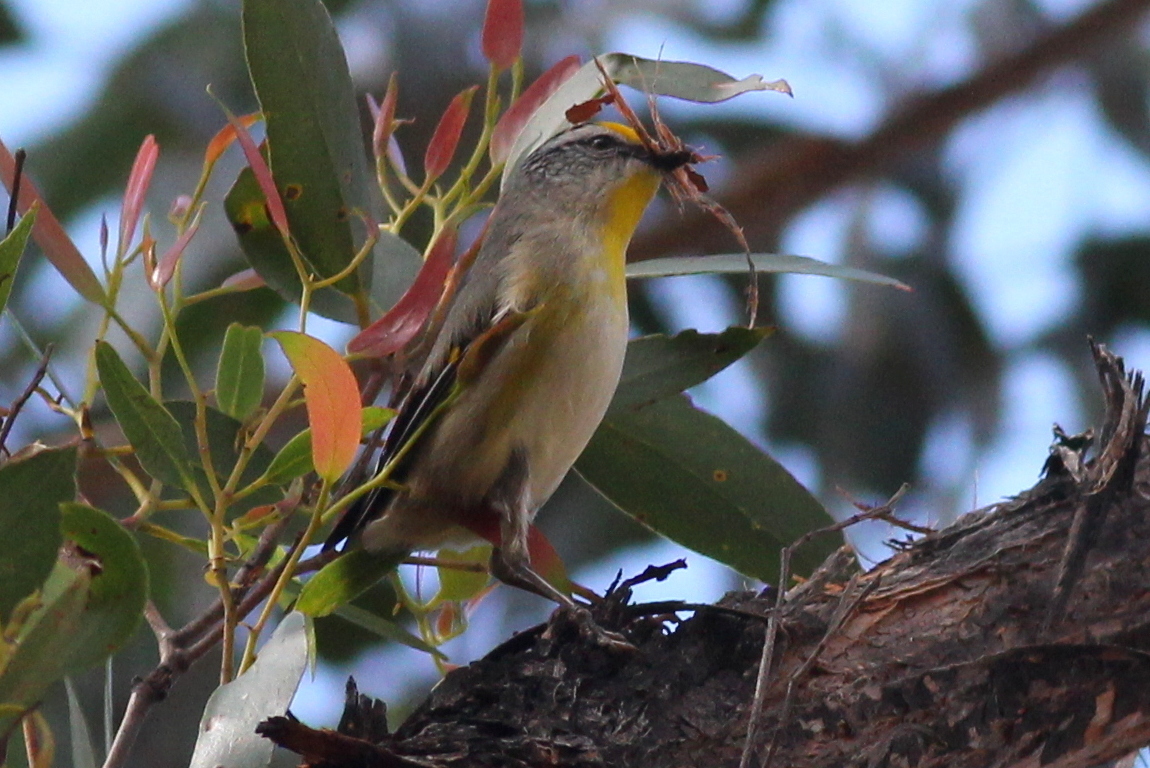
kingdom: Animalia
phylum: Chordata
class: Aves
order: Passeriformes
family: Pardalotidae
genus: Pardalotus
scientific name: Pardalotus striatus
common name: Striated pardalote
